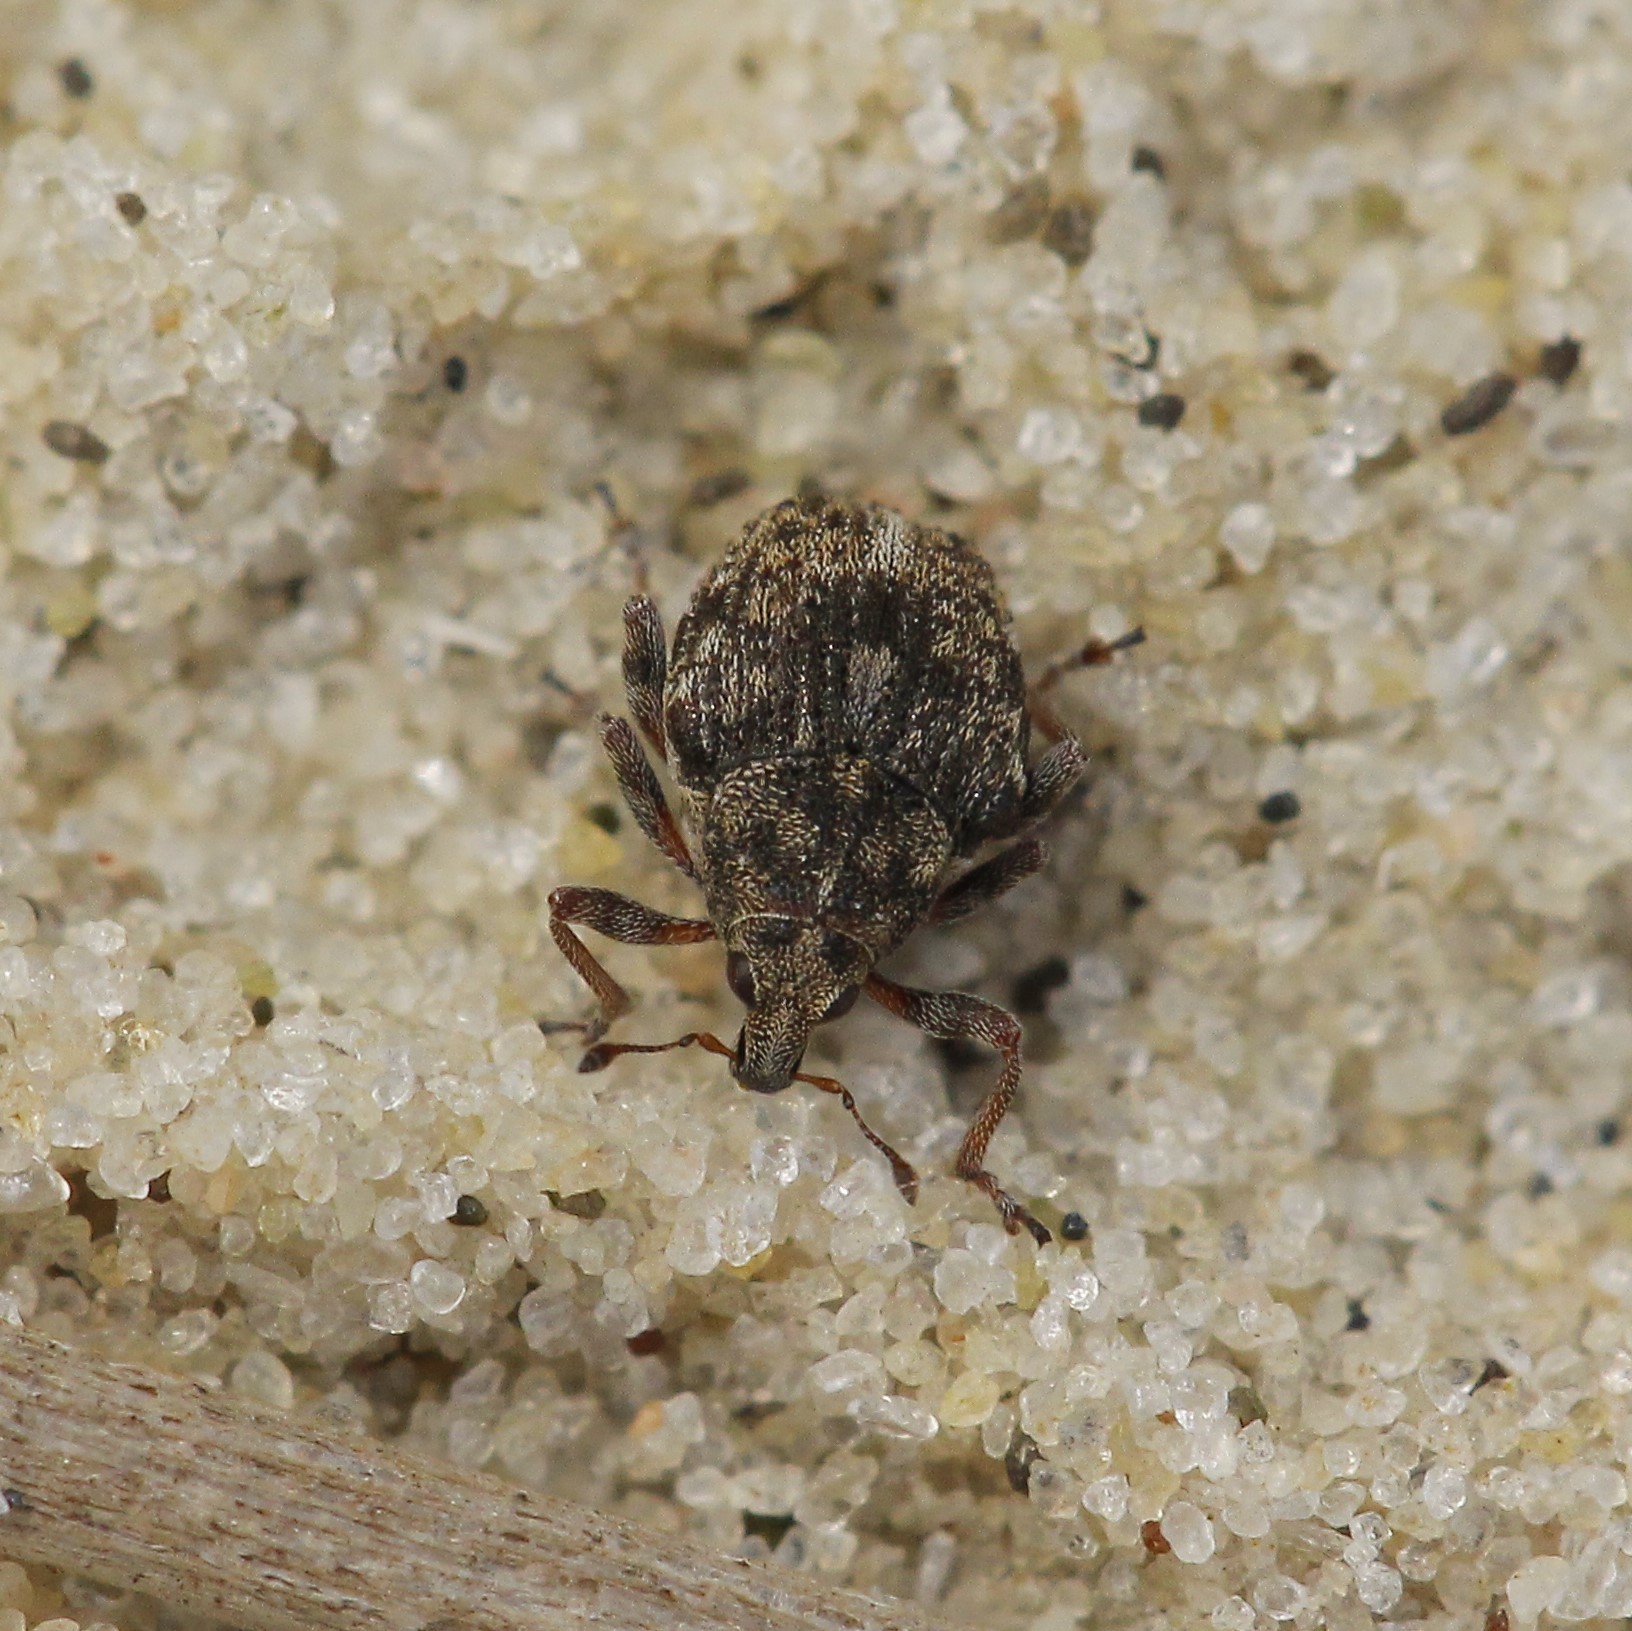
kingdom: Animalia
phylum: Arthropoda
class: Insecta
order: Coleoptera
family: Curculionidae
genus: Rhinoncus
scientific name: Rhinoncus bruchoides
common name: Weevil
